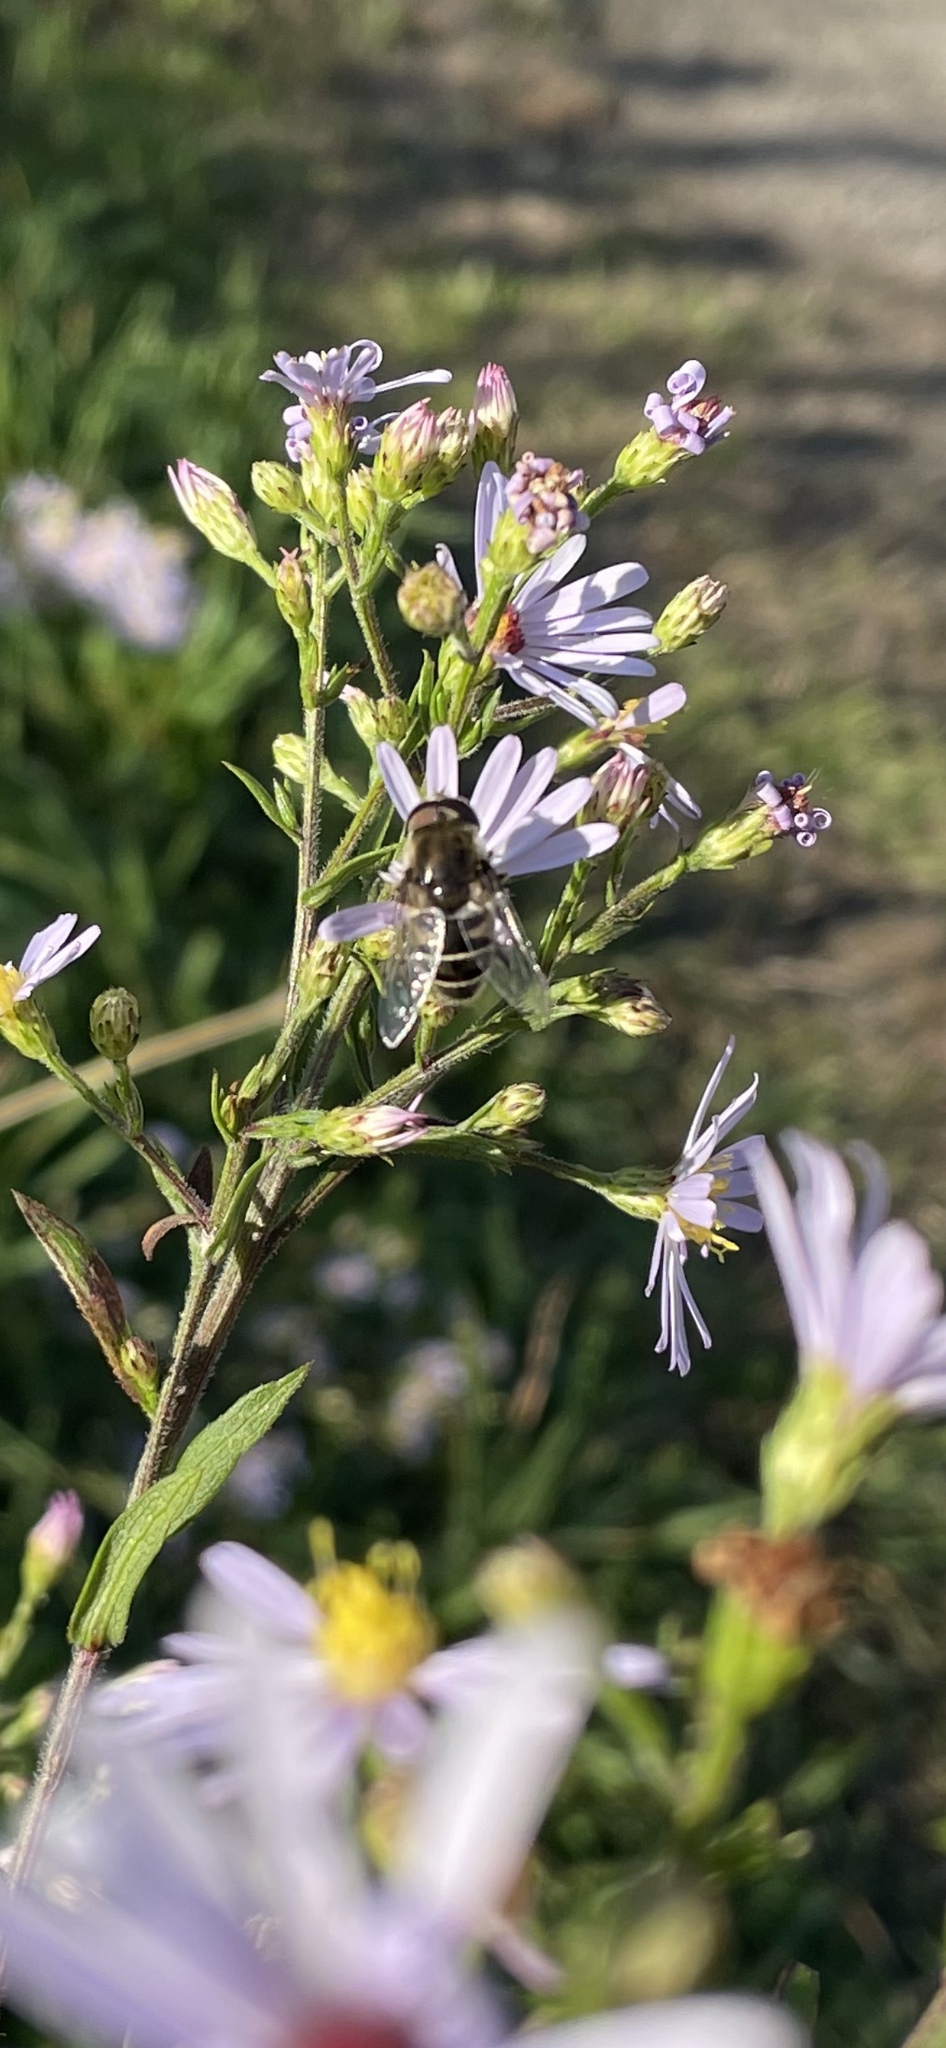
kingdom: Animalia
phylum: Arthropoda
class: Insecta
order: Diptera
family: Syrphidae
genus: Eristalis
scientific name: Eristalis dimidiata
